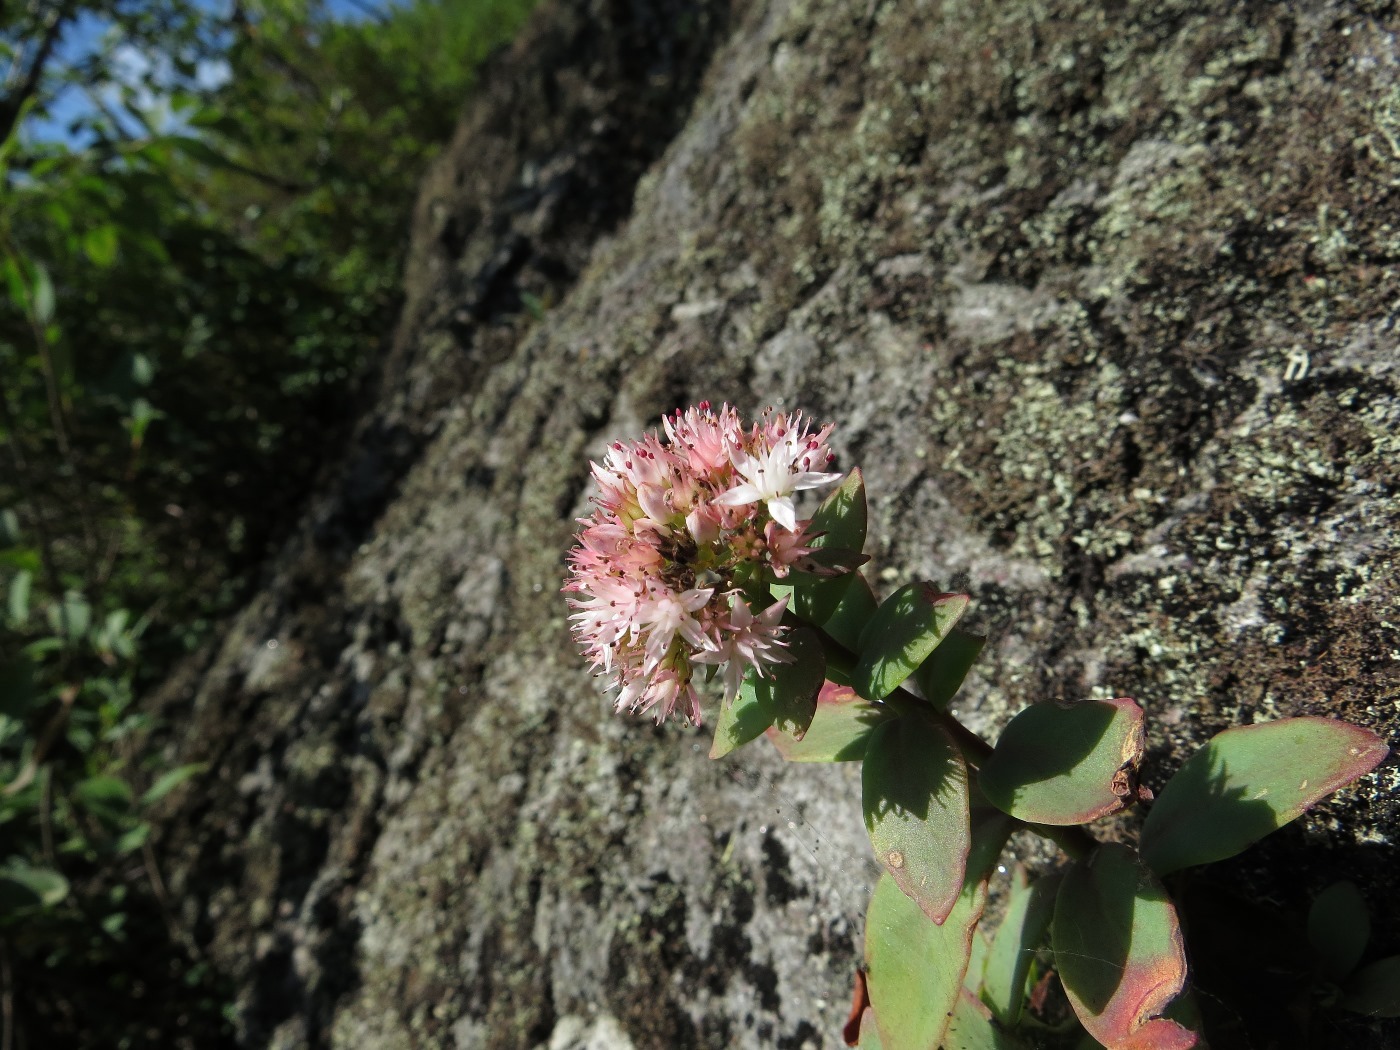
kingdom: Plantae
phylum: Tracheophyta
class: Magnoliopsida
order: Saxifragales
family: Crassulaceae
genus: Hylotelephium
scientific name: Hylotelephium telephioides
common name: Allegheny stonecrop
